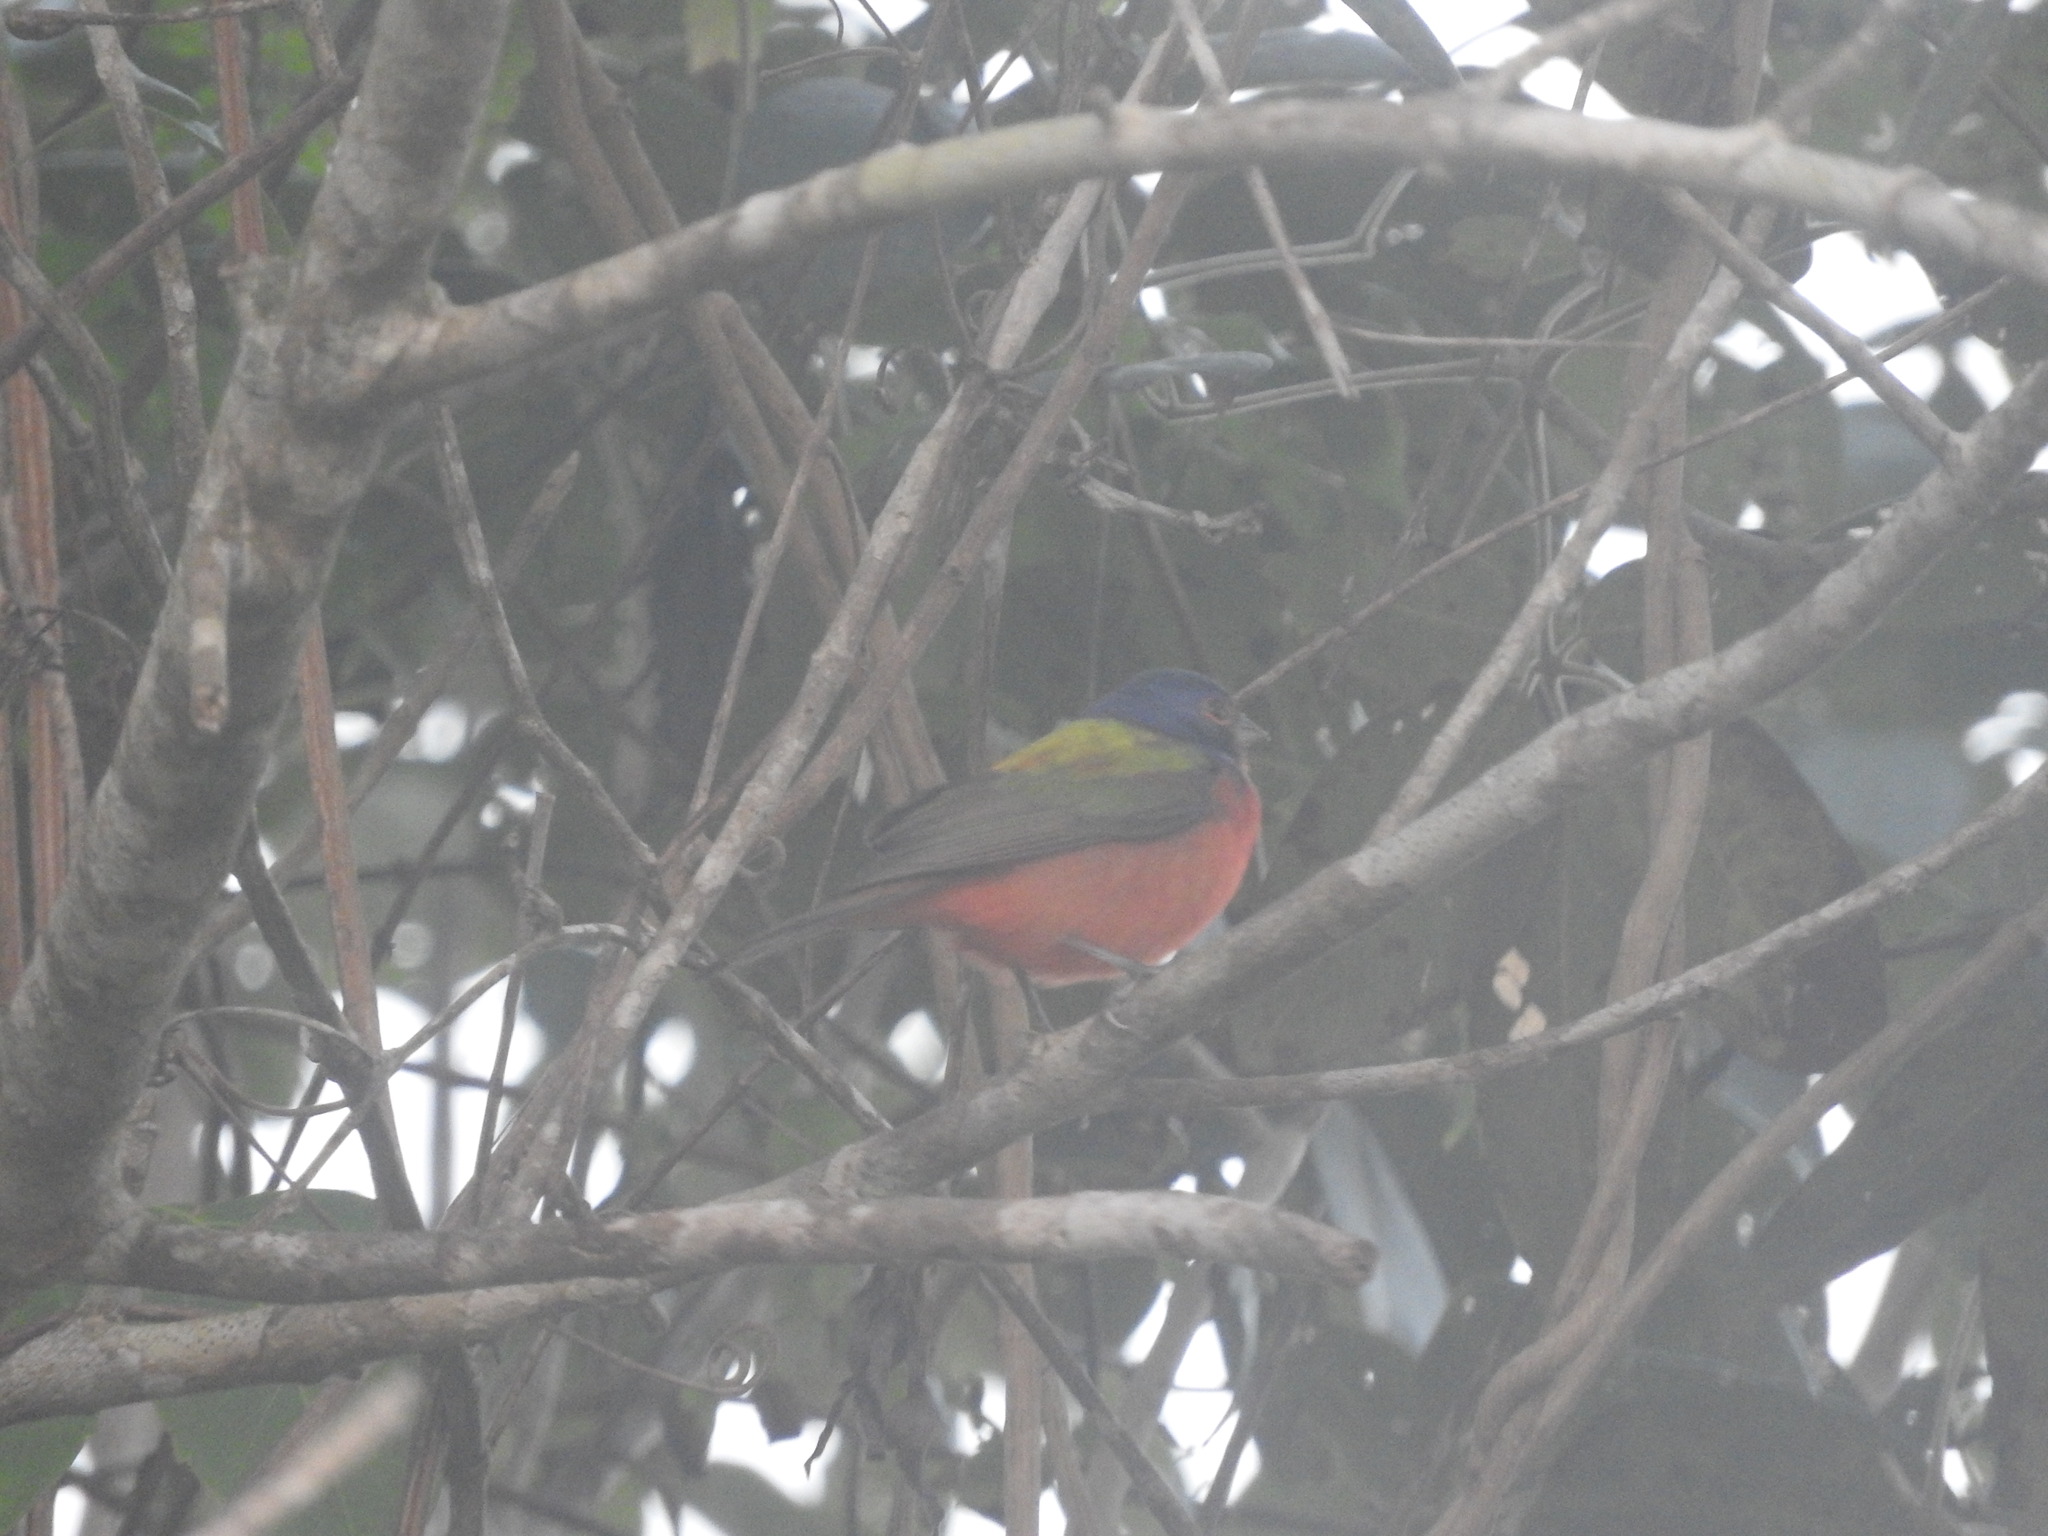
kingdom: Animalia
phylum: Chordata
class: Aves
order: Passeriformes
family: Cardinalidae
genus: Passerina
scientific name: Passerina ciris
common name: Painted bunting
